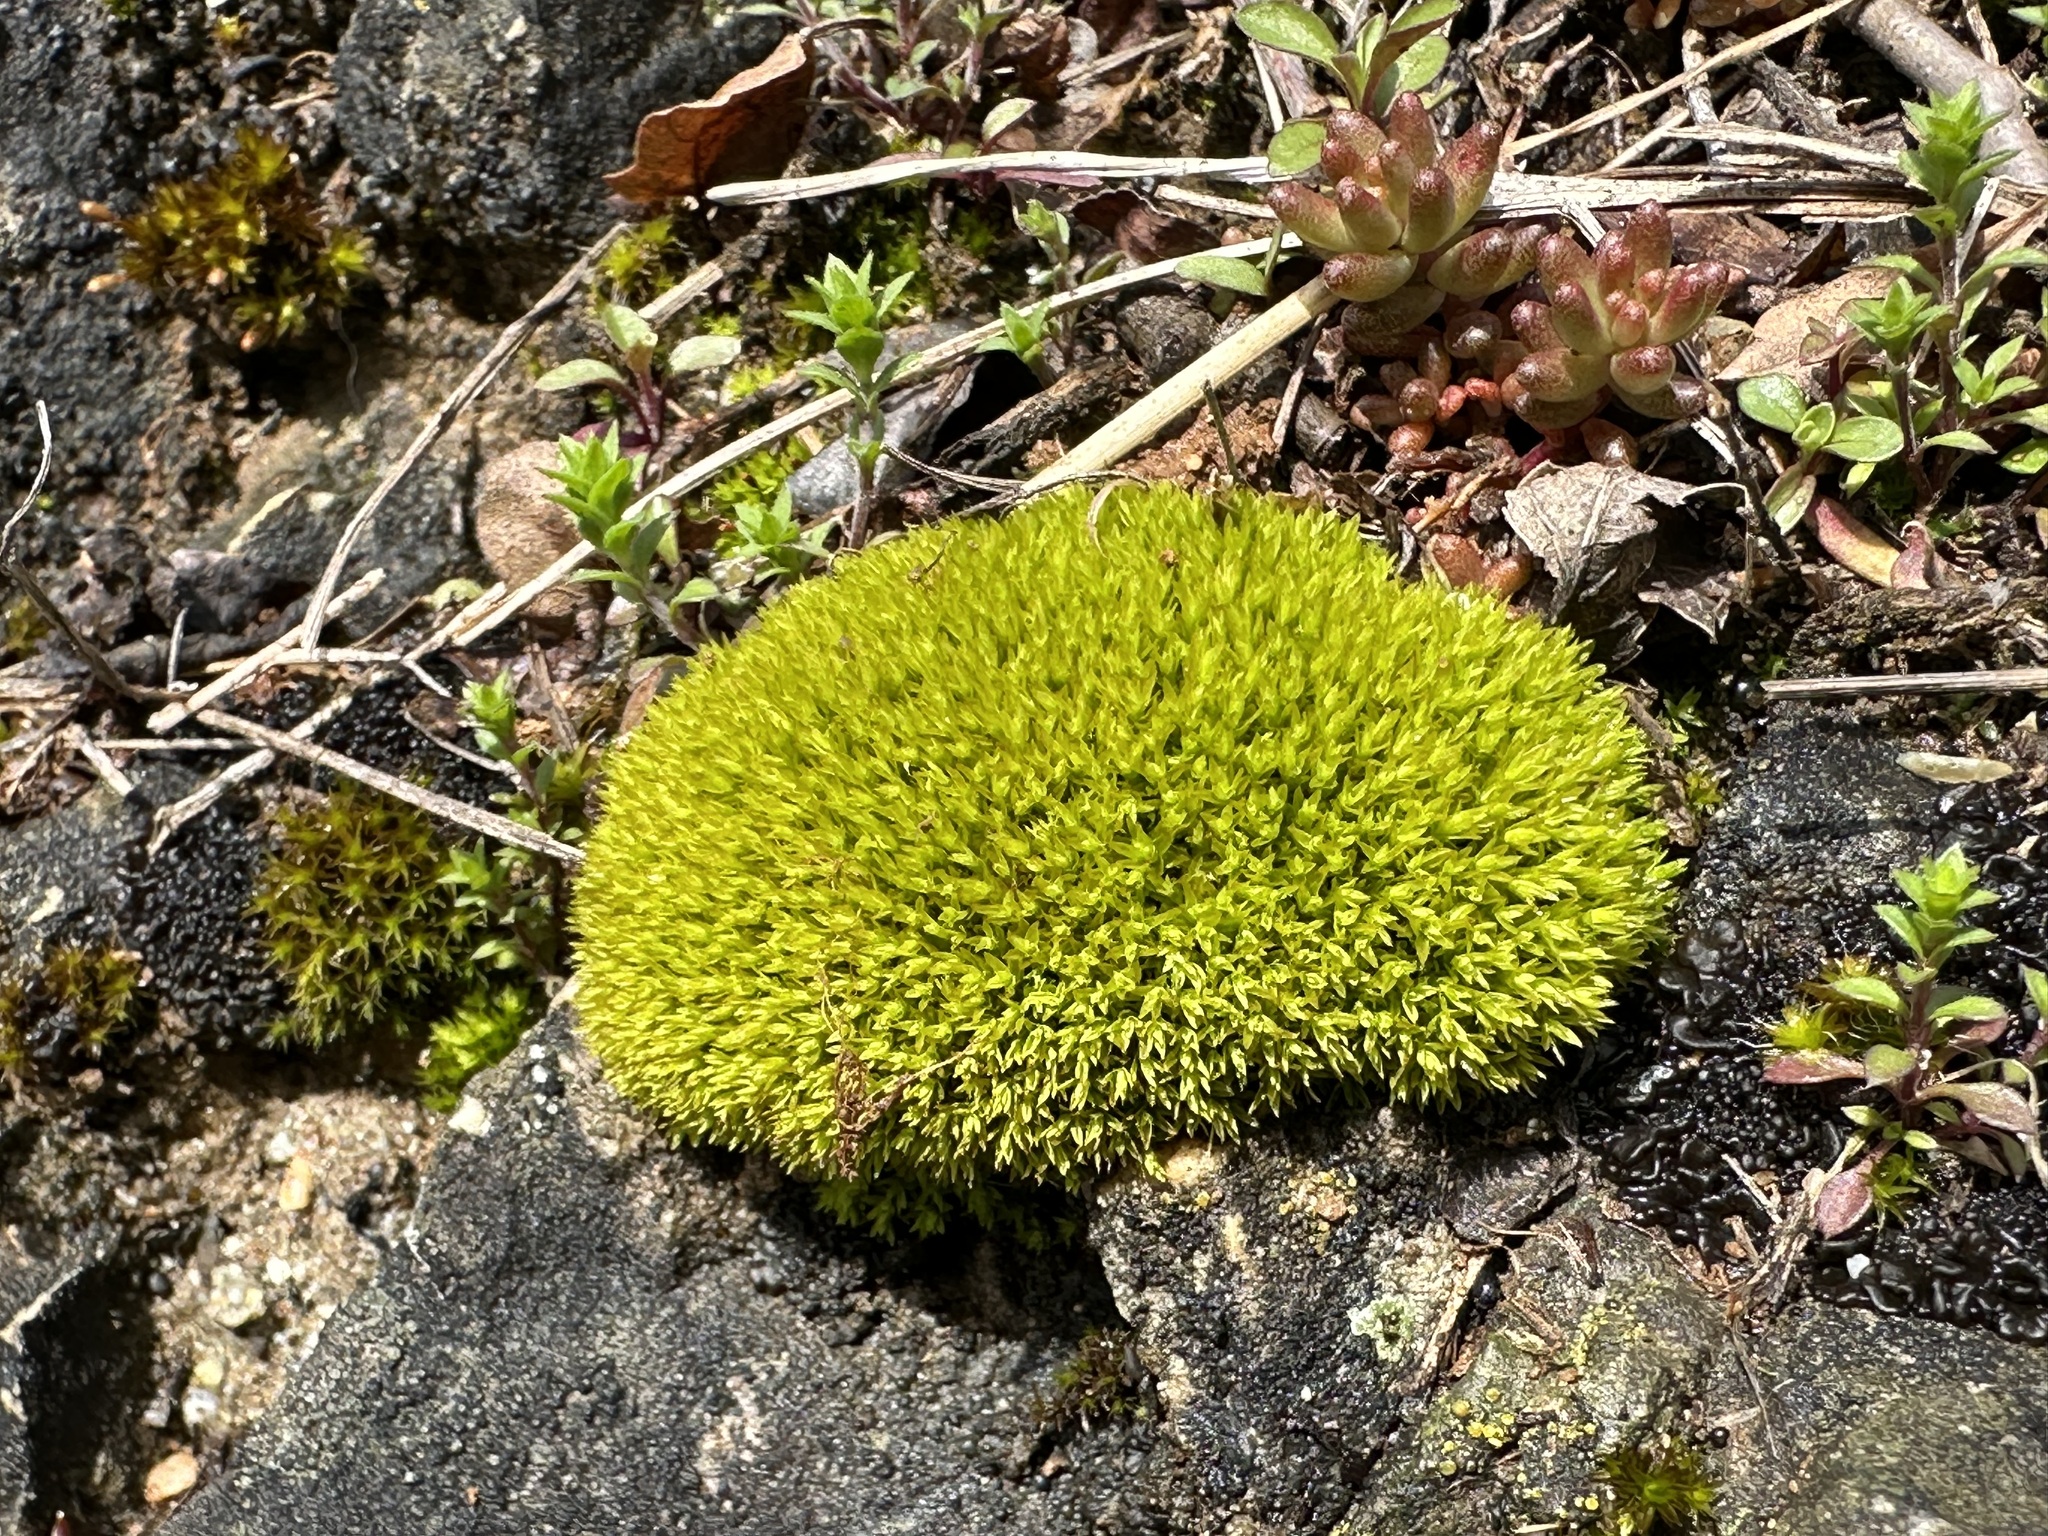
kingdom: Plantae
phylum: Bryophyta
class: Bryopsida
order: Pottiales
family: Pottiaceae
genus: Barbula
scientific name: Barbula unguiculata
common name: Prickly beard moss
